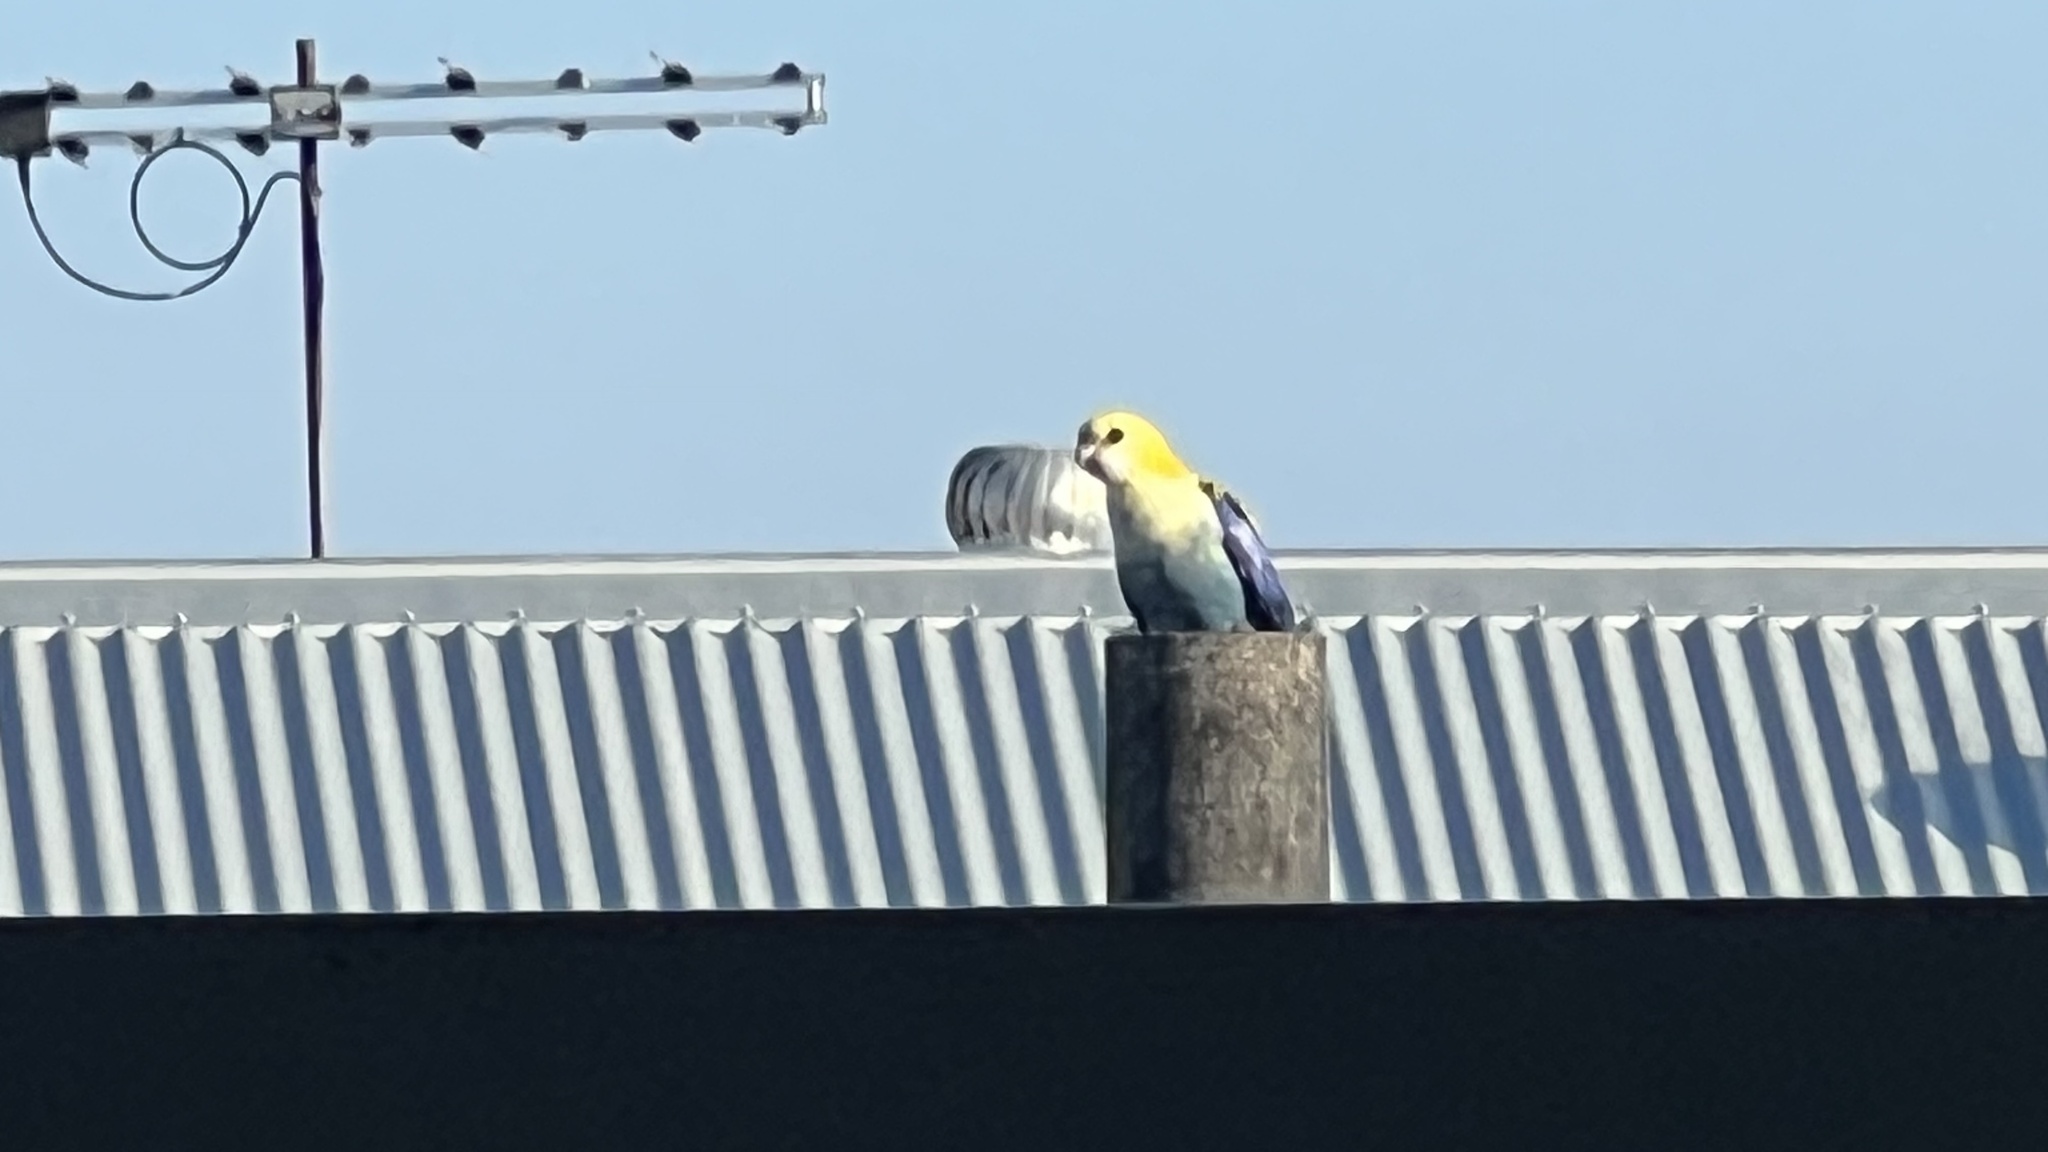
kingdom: Animalia
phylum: Chordata
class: Aves
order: Psittaciformes
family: Psittacidae
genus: Platycercus
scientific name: Platycercus adscitus
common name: Pale-headed rosella
